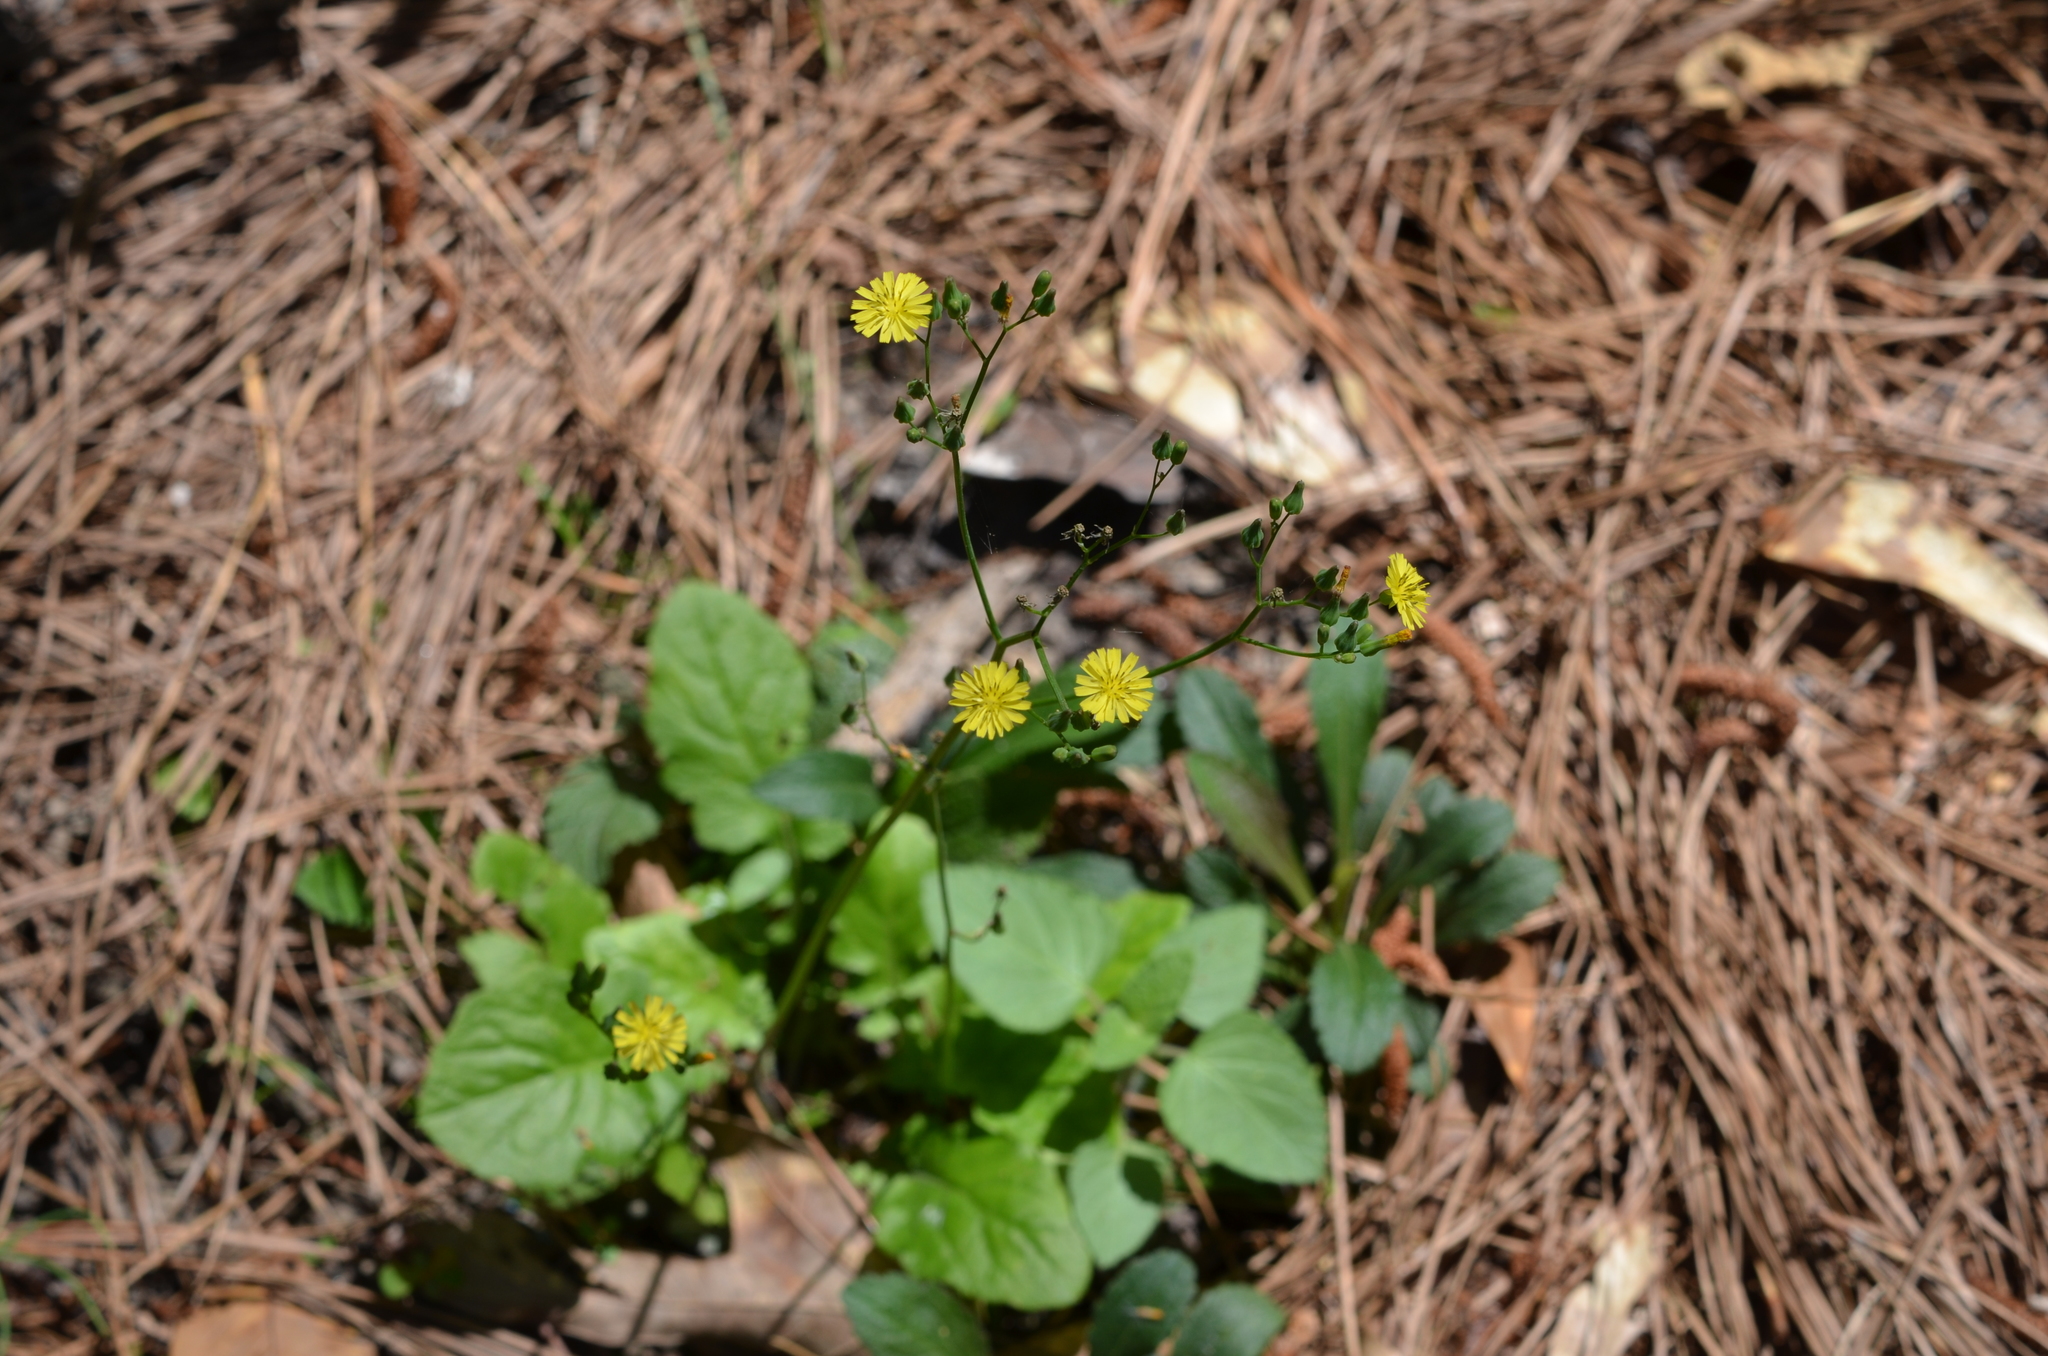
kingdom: Plantae
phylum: Tracheophyta
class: Magnoliopsida
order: Asterales
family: Asteraceae
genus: Youngia
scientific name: Youngia japonica
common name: Oriental false hawksbeard
